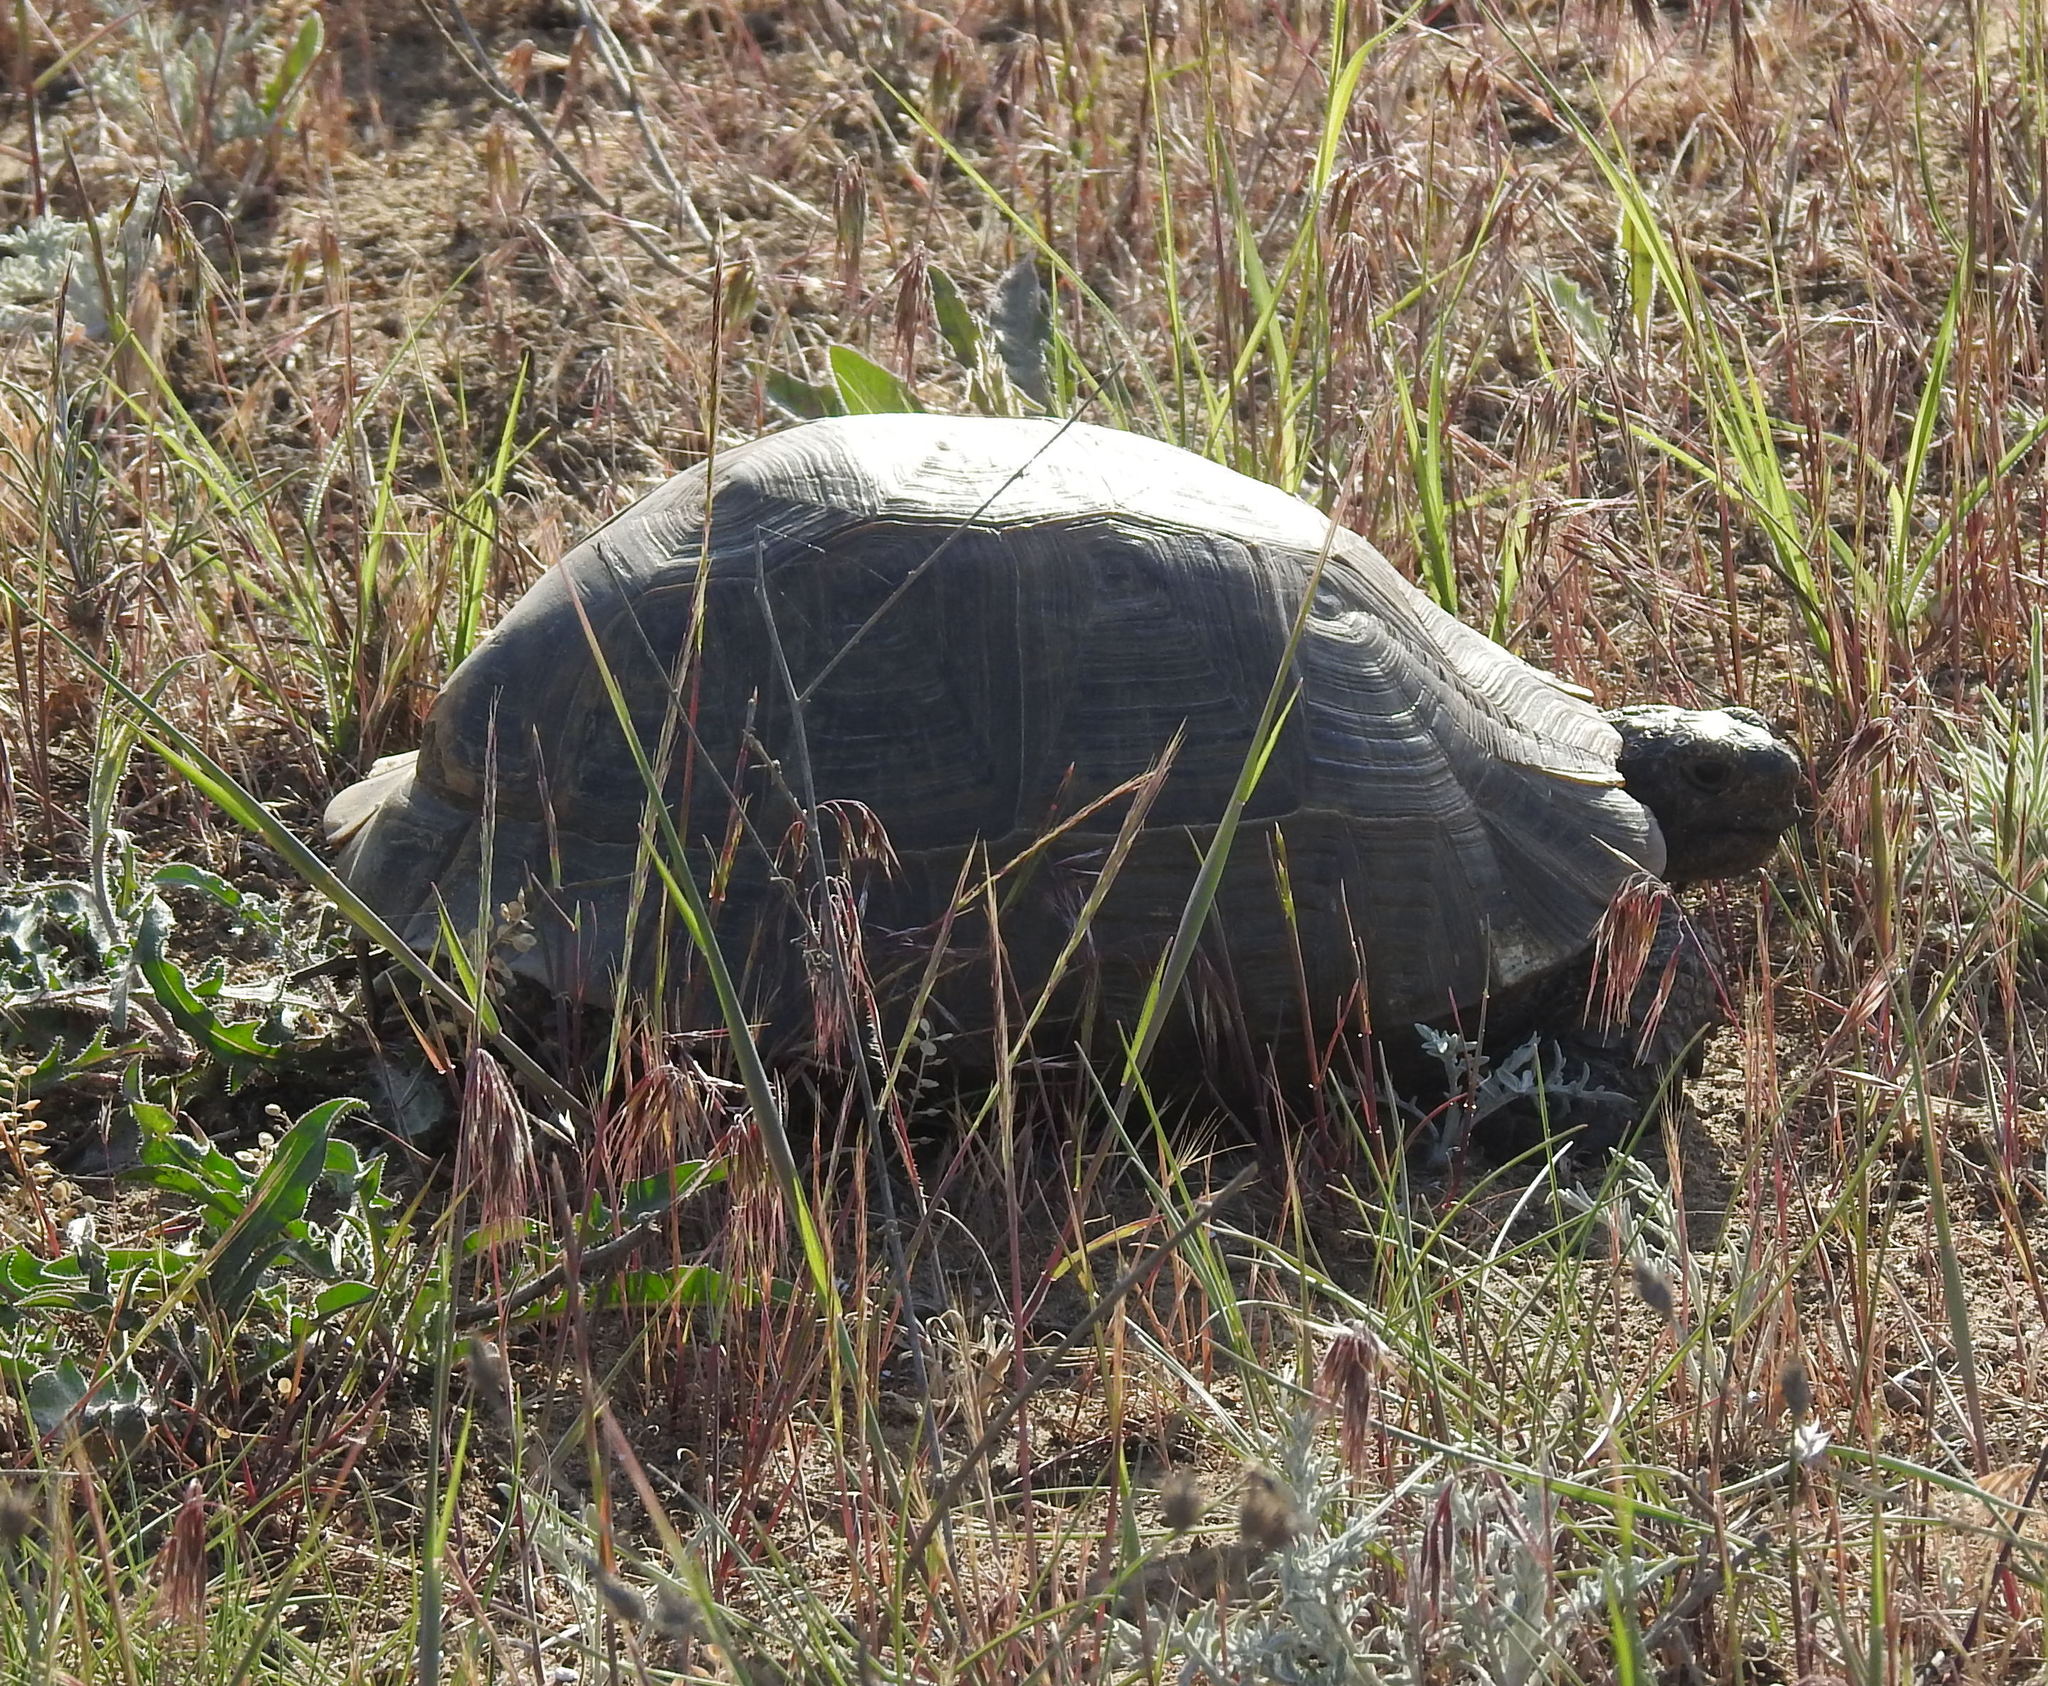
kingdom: Animalia
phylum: Chordata
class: Testudines
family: Testudinidae
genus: Testudo
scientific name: Testudo graeca
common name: Common tortoise
